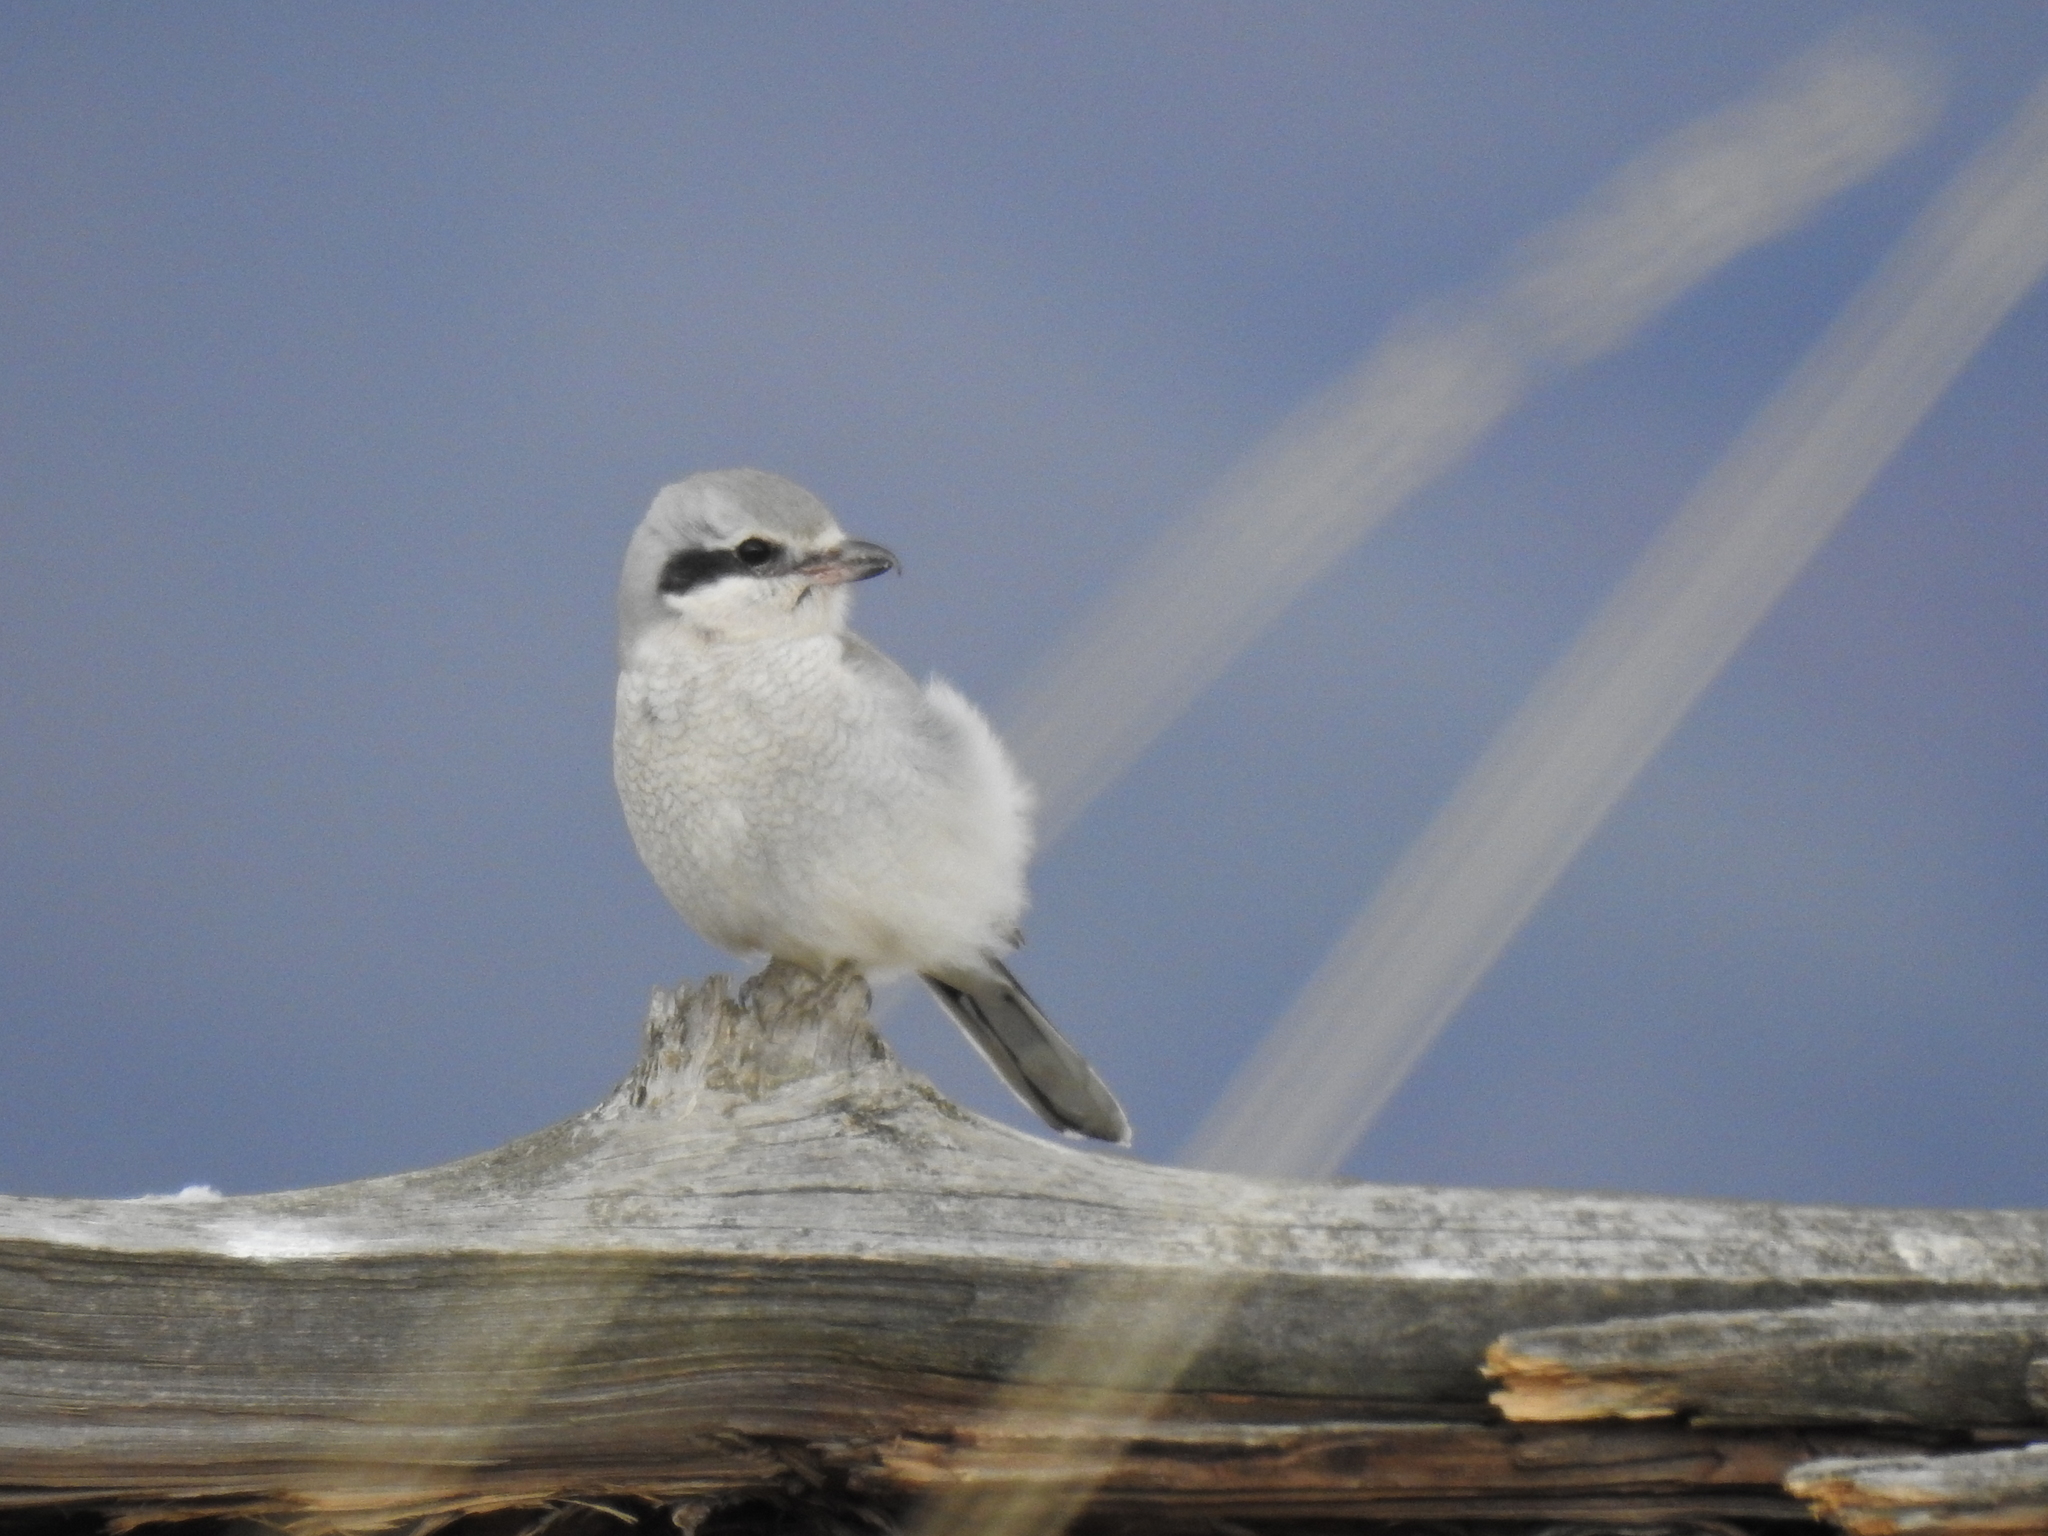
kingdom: Animalia
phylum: Chordata
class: Aves
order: Passeriformes
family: Laniidae
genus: Lanius
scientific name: Lanius borealis
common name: Northern shrike
